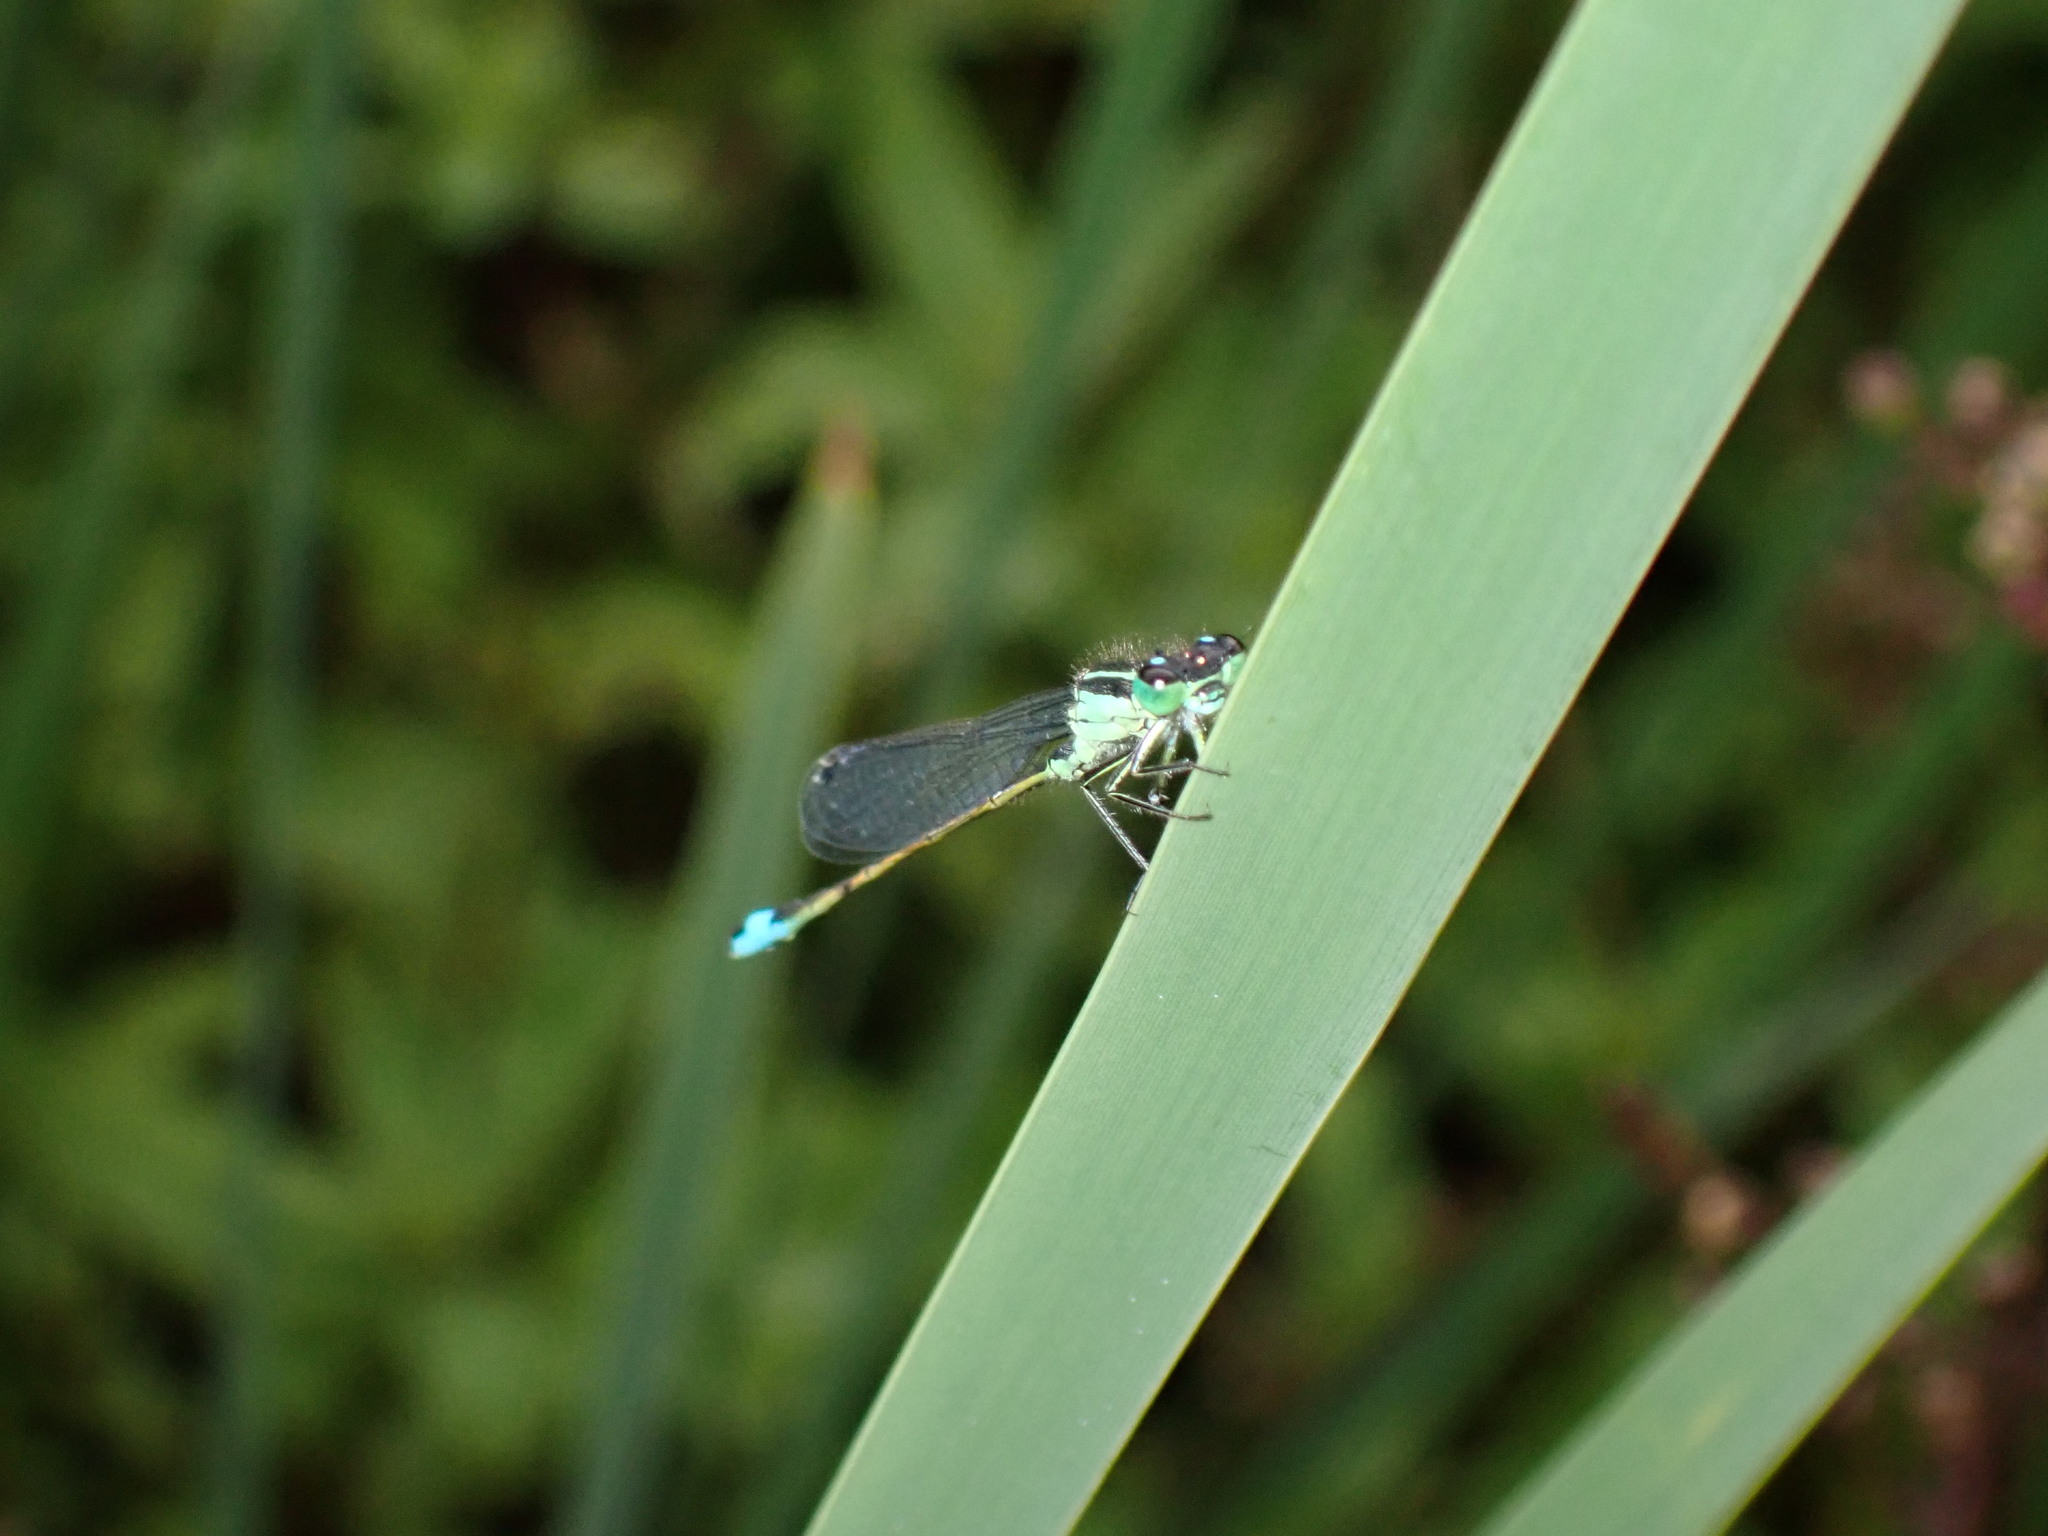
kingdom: Animalia
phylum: Arthropoda
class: Insecta
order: Odonata
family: Coenagrionidae
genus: Ischnura
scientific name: Ischnura elegans
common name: Blue-tailed damselfly
